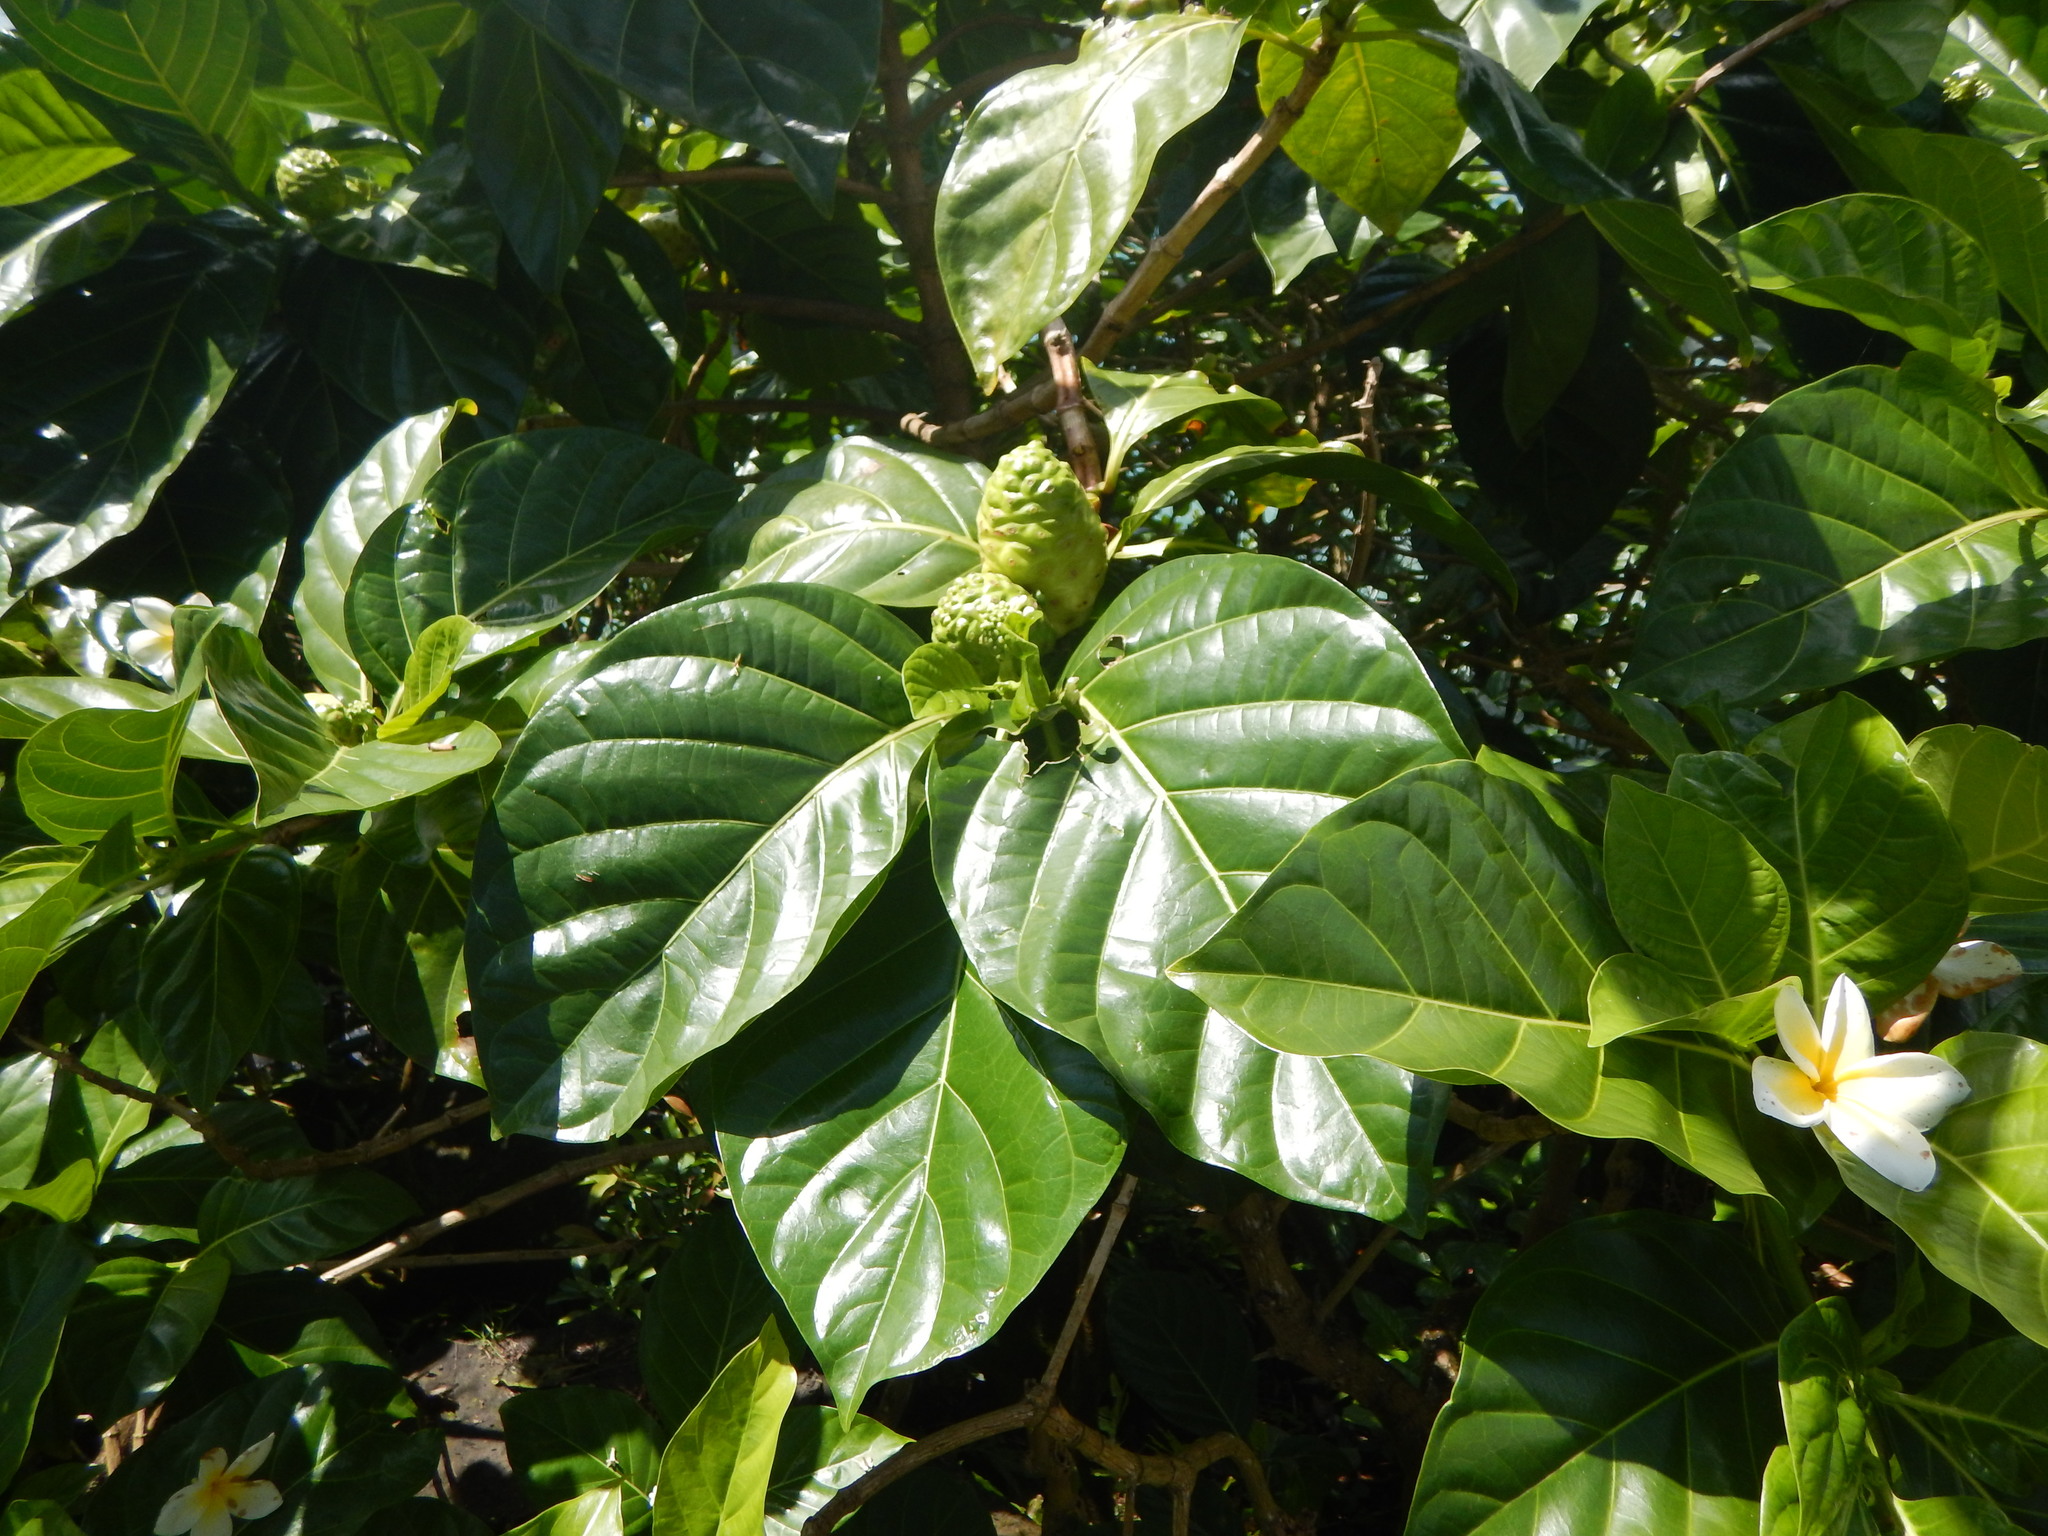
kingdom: Plantae
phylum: Tracheophyta
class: Magnoliopsida
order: Gentianales
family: Rubiaceae
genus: Morinda
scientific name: Morinda citrifolia
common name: Indian-mulberry
